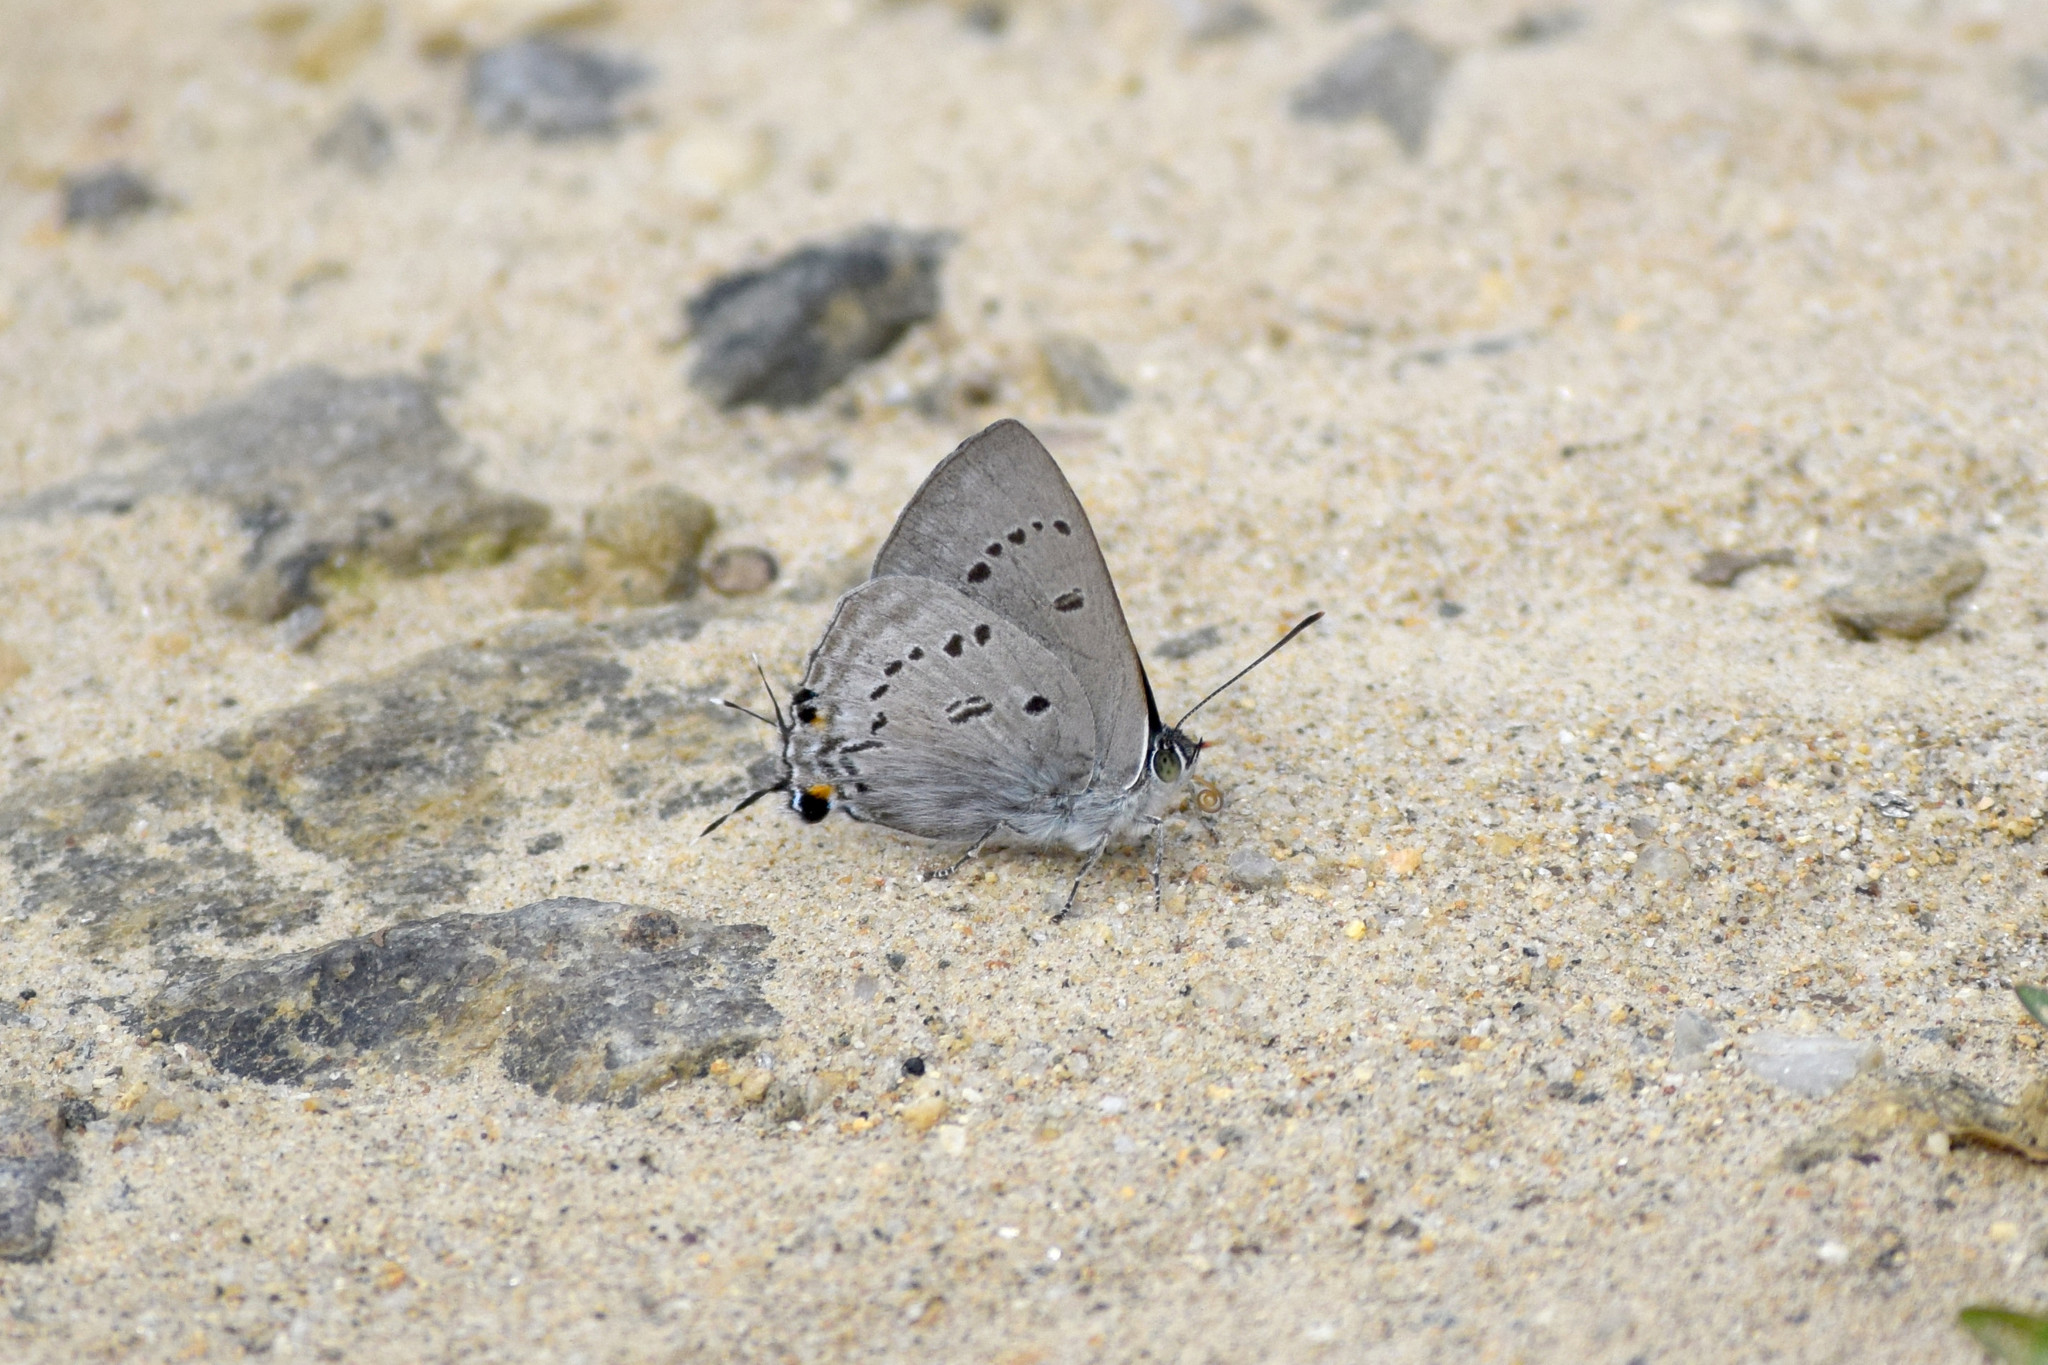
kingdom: Animalia
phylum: Arthropoda
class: Insecta
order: Lepidoptera
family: Lycaenidae
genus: Ancema
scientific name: Ancema ctesia
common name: Bi-spot royal
